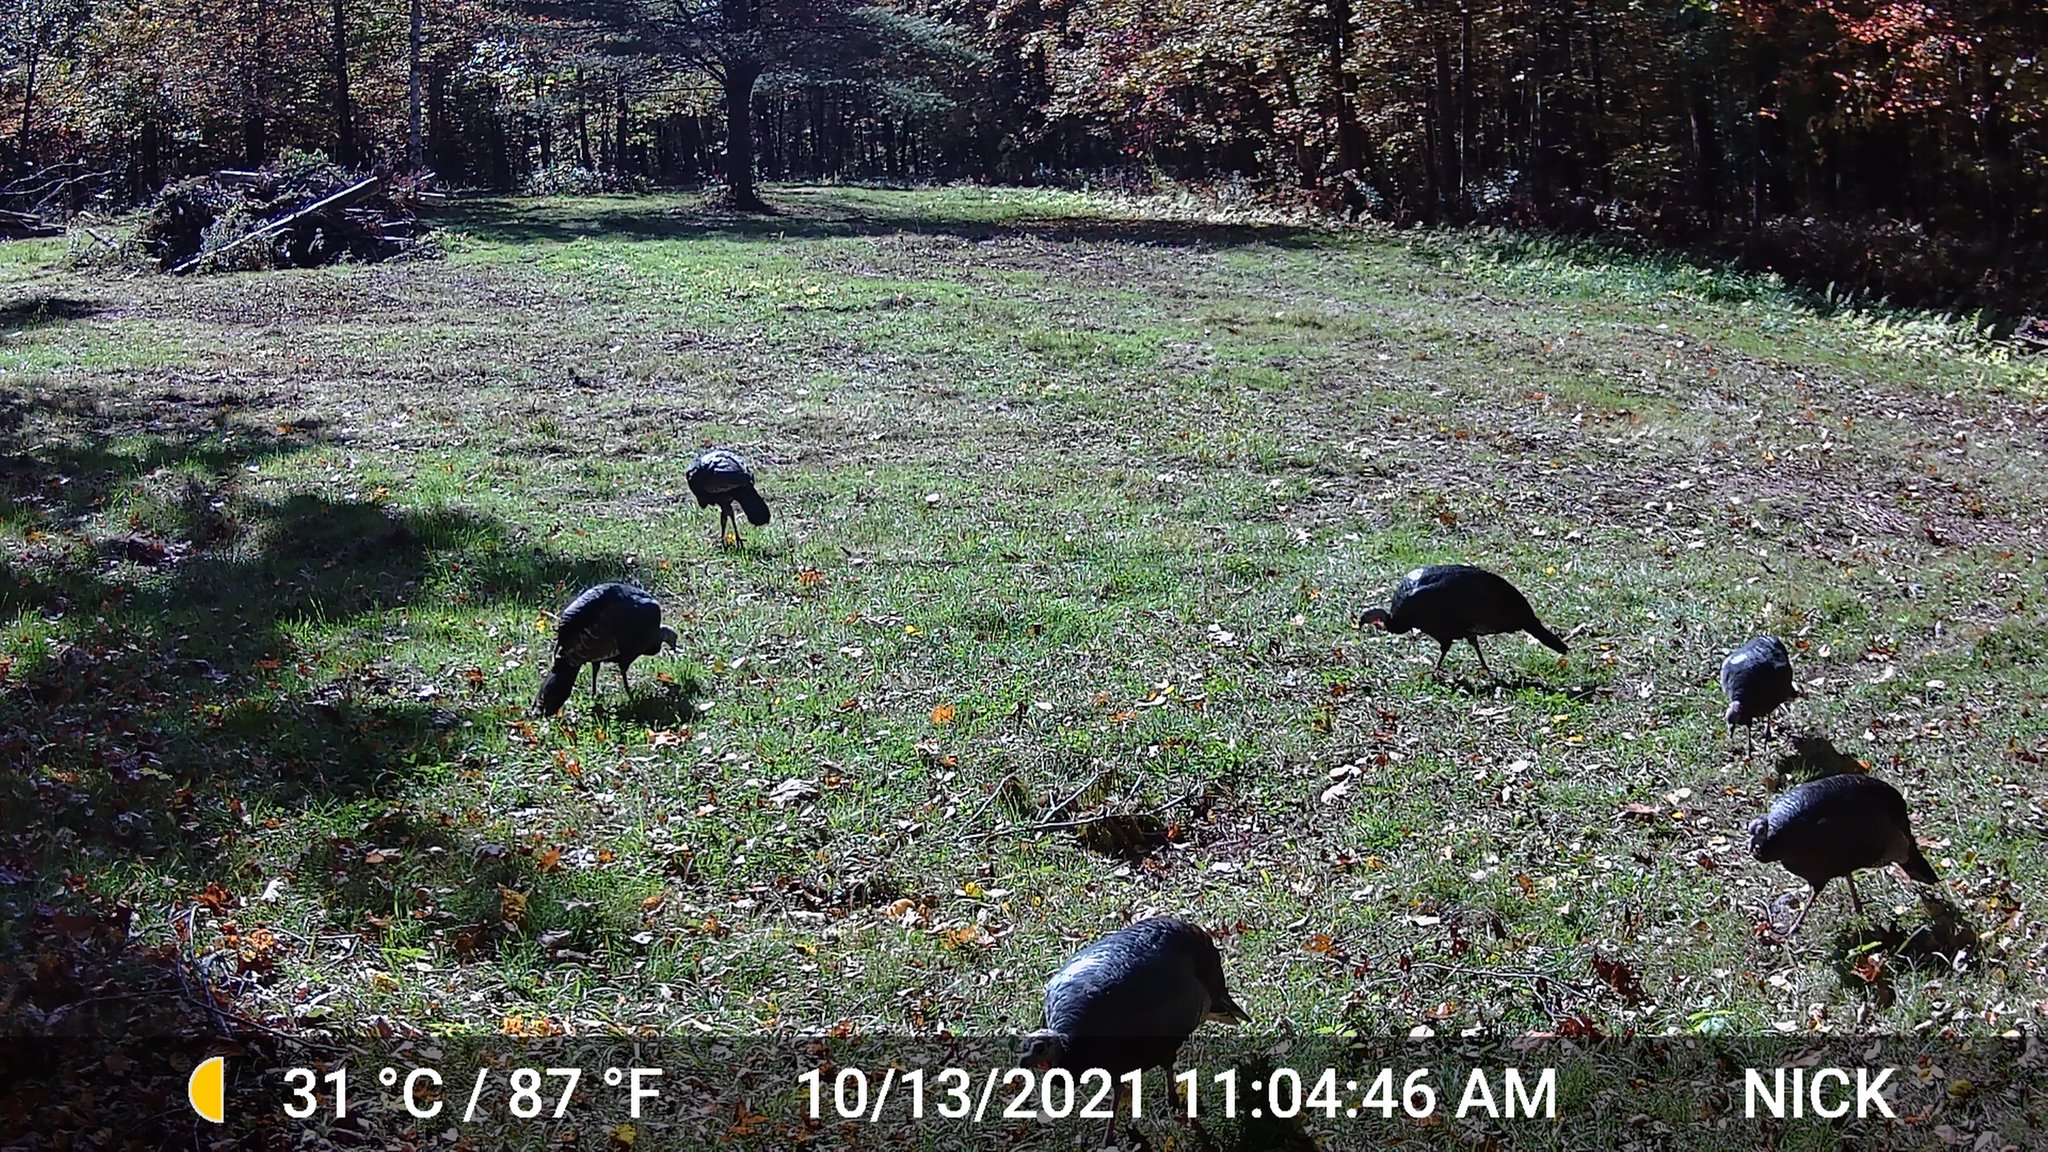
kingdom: Animalia
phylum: Chordata
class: Aves
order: Galliformes
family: Phasianidae
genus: Meleagris
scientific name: Meleagris gallopavo
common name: Wild turkey
